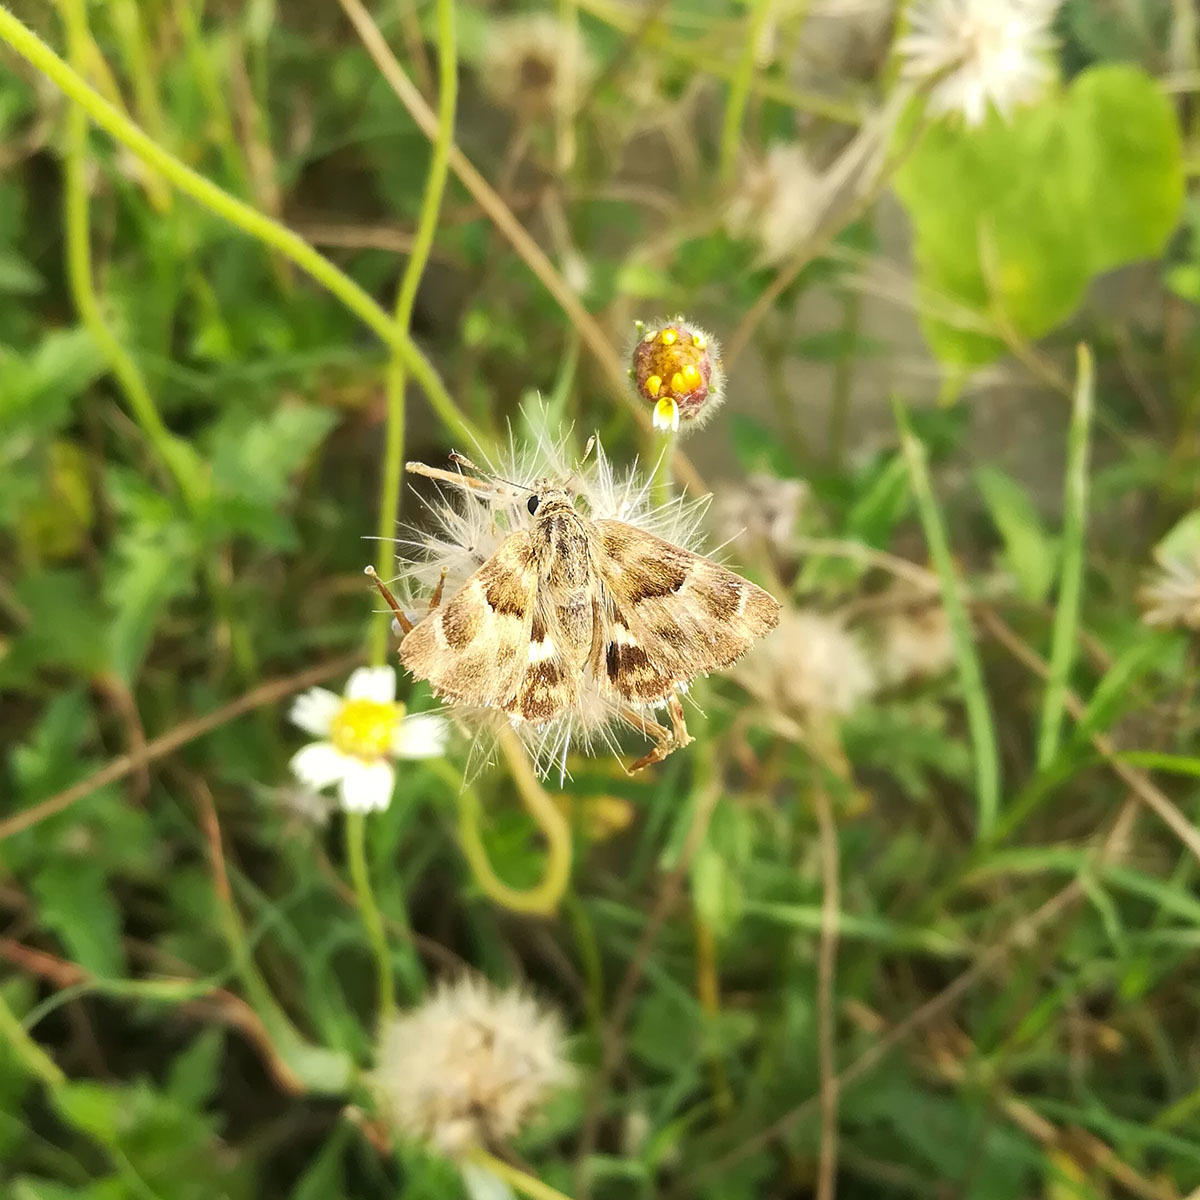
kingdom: Animalia
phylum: Arthropoda
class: Insecta
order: Lepidoptera
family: Hesperiidae
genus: Gomalia
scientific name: Gomalia elma
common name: Green-marbled skipper
